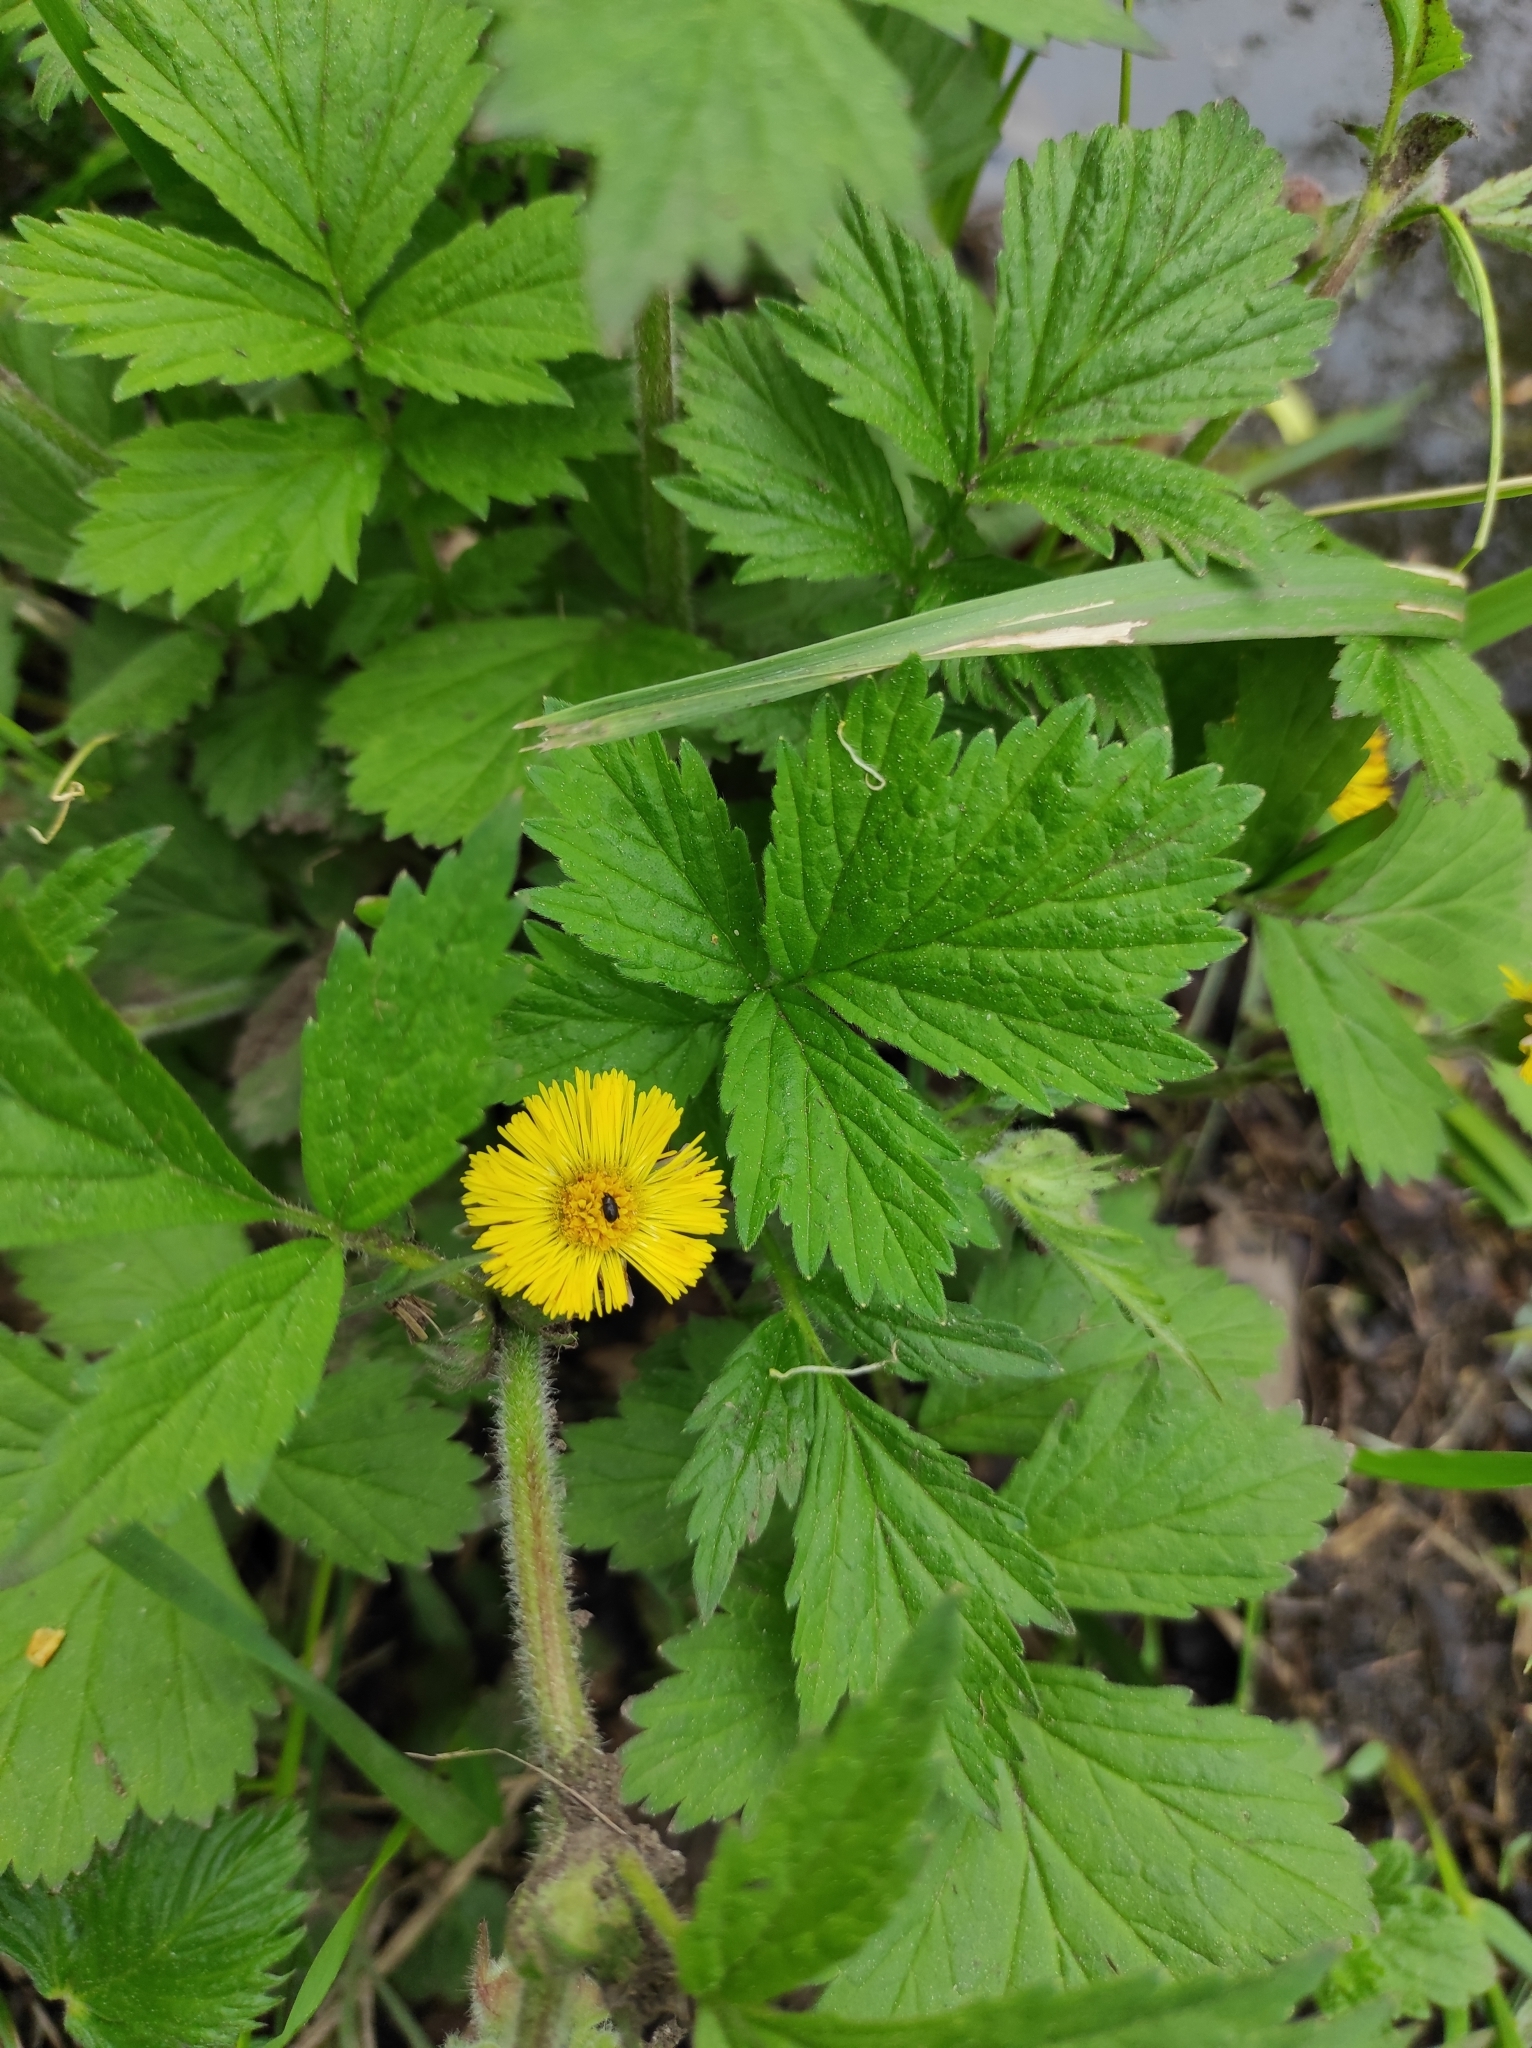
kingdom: Plantae
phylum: Tracheophyta
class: Magnoliopsida
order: Asterales
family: Asteraceae
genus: Tussilago
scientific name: Tussilago farfara
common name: Coltsfoot
